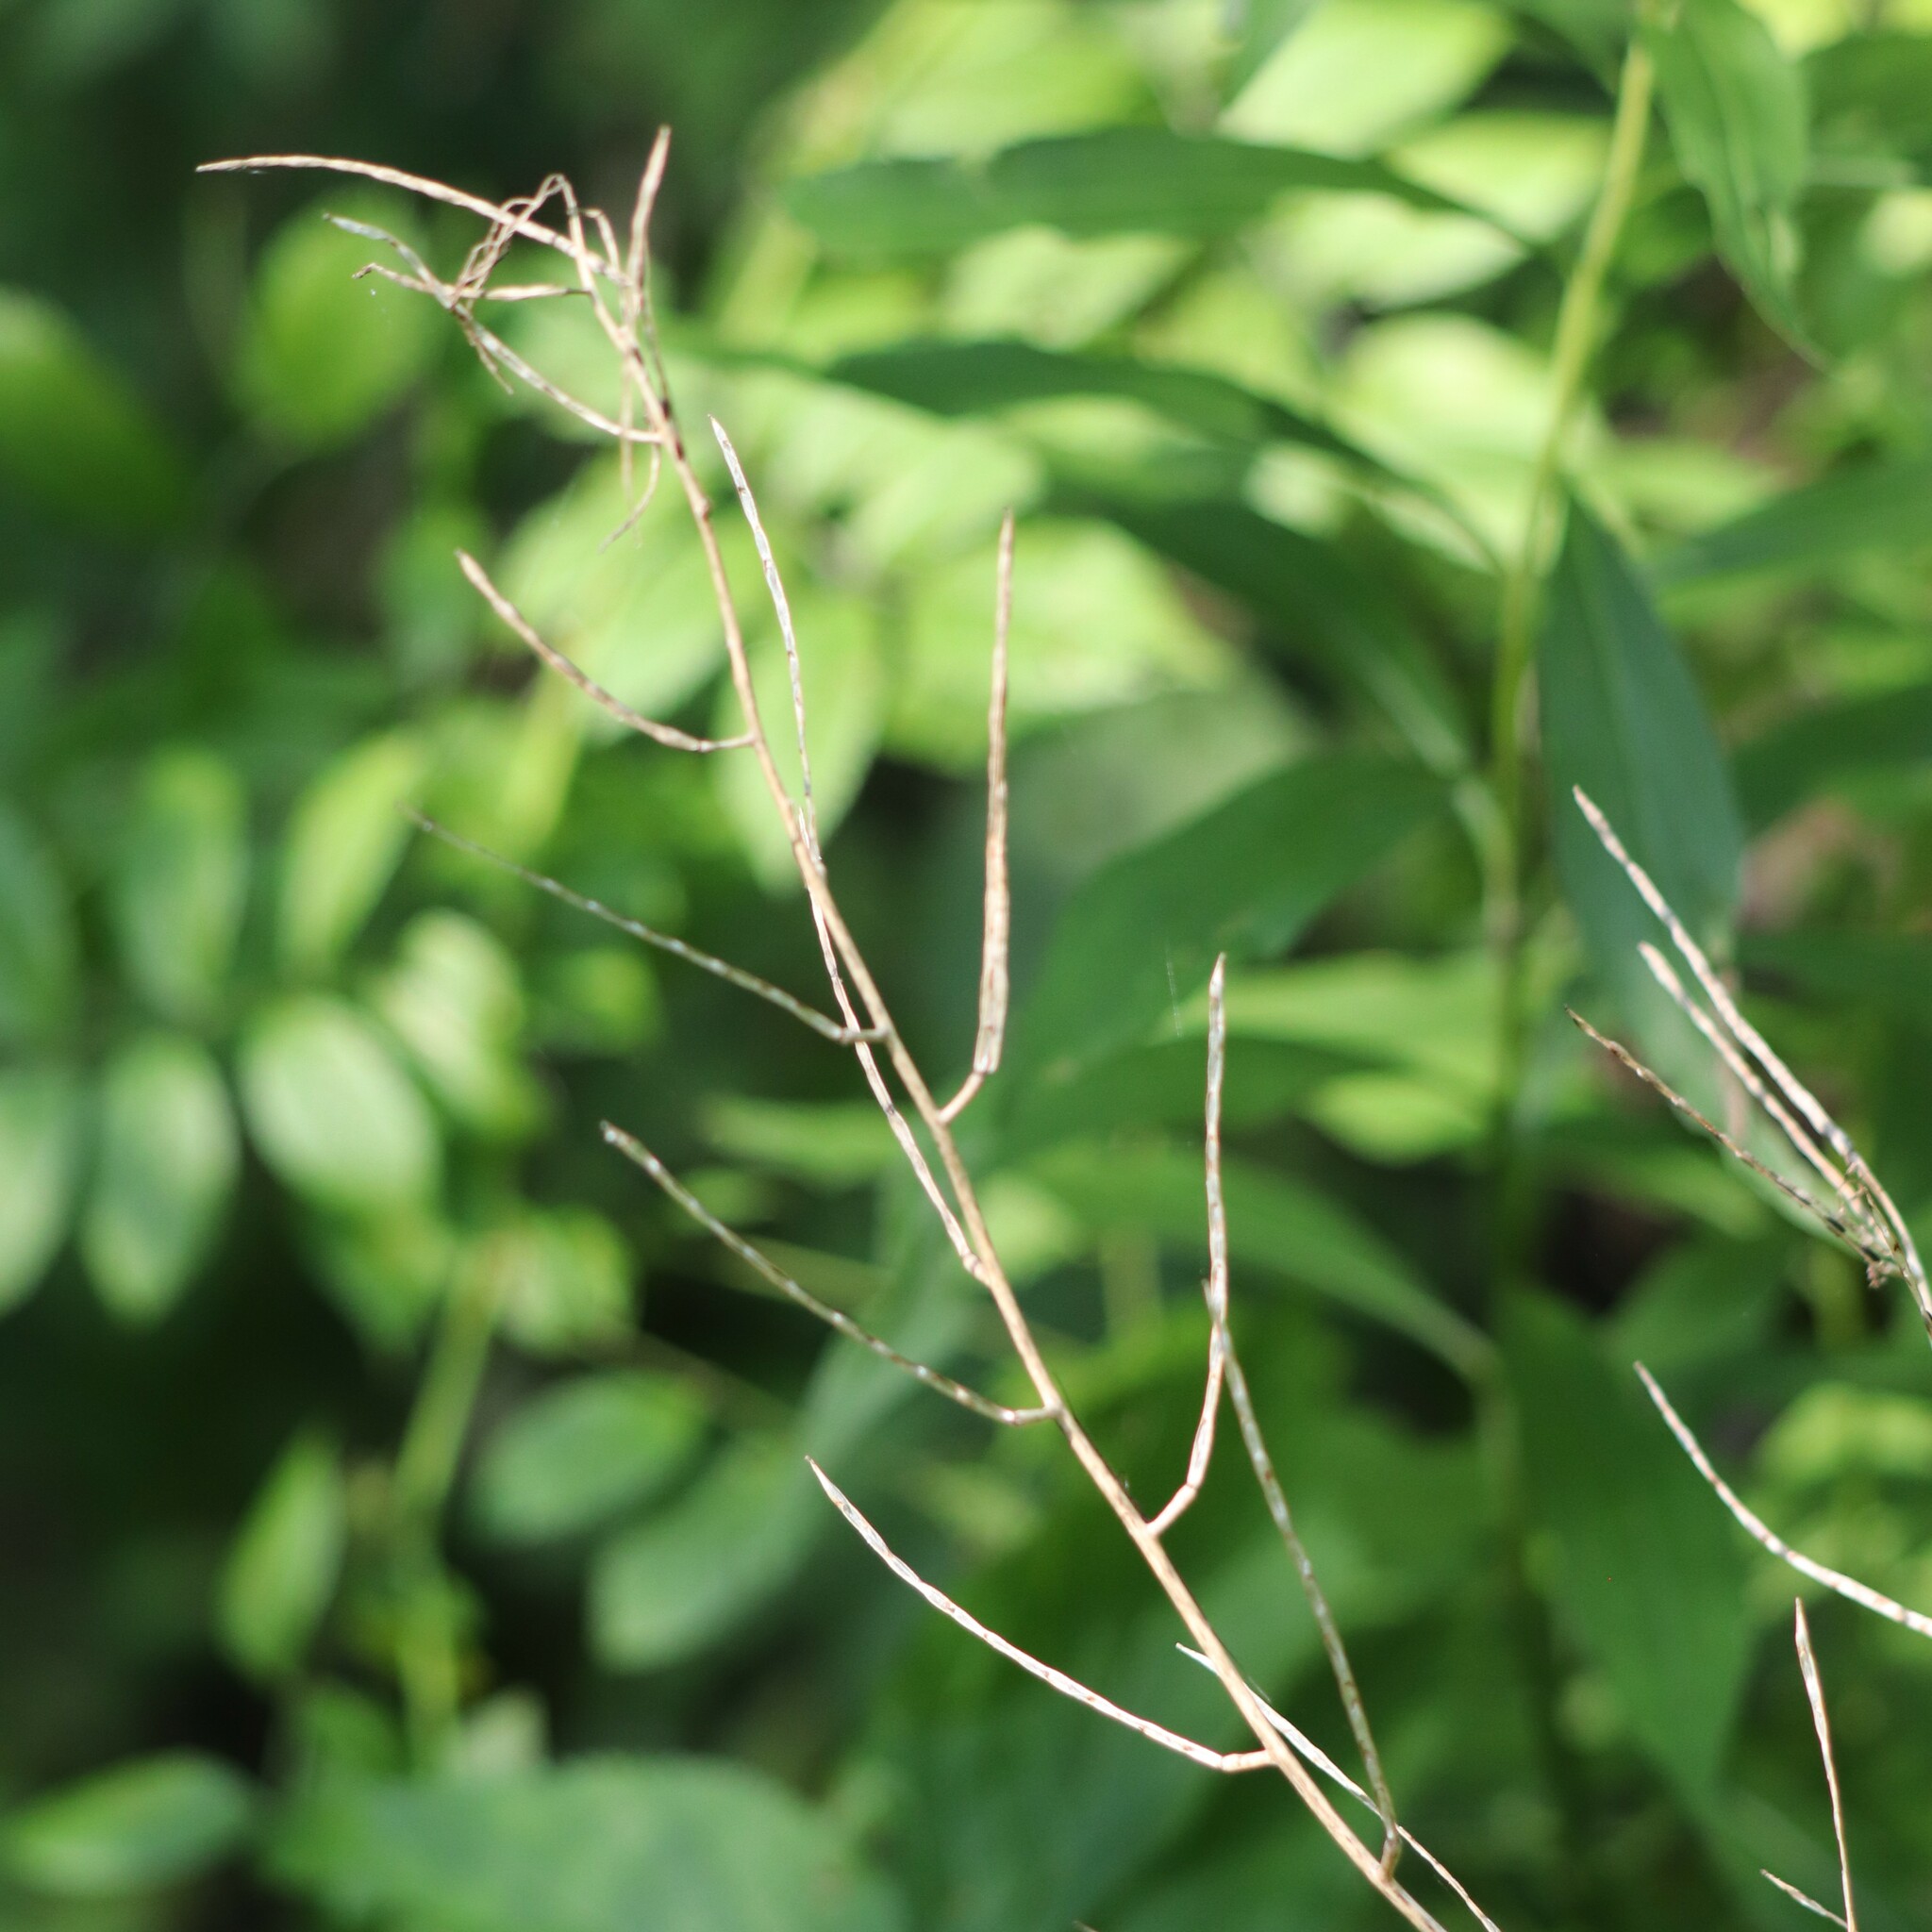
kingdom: Plantae
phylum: Tracheophyta
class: Magnoliopsida
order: Brassicales
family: Brassicaceae
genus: Alliaria
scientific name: Alliaria petiolata
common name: Garlic mustard
